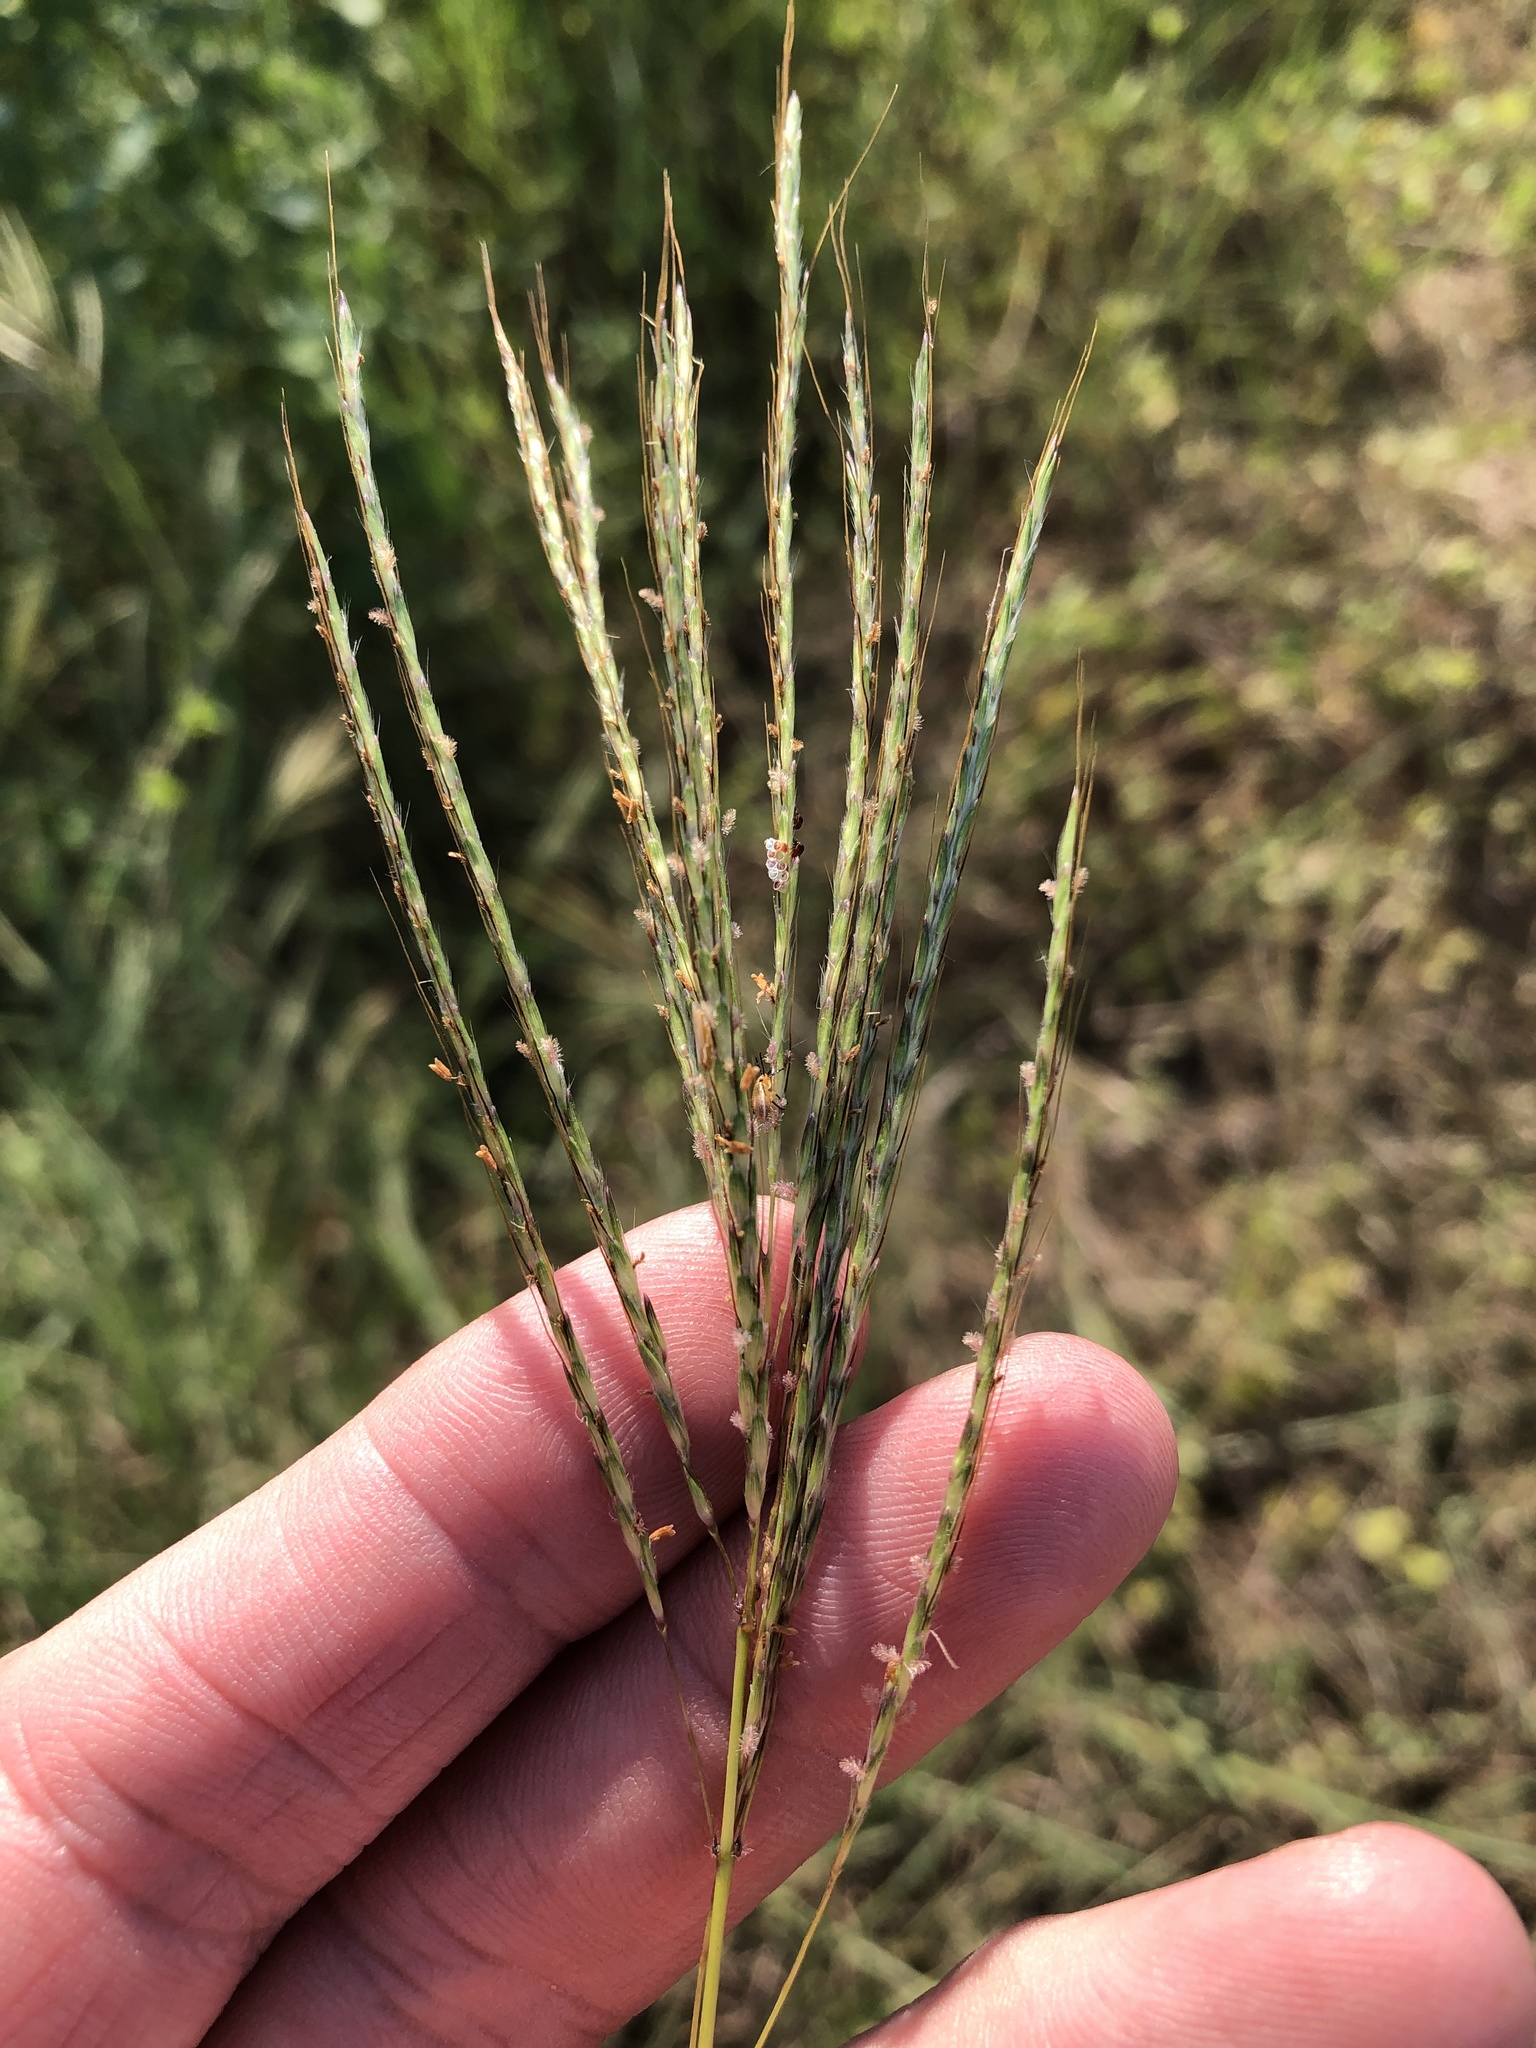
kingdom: Plantae
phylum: Tracheophyta
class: Liliopsida
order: Poales
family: Poaceae
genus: Bothriochloa
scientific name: Bothriochloa ischaemum
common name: Yellow bluestem
